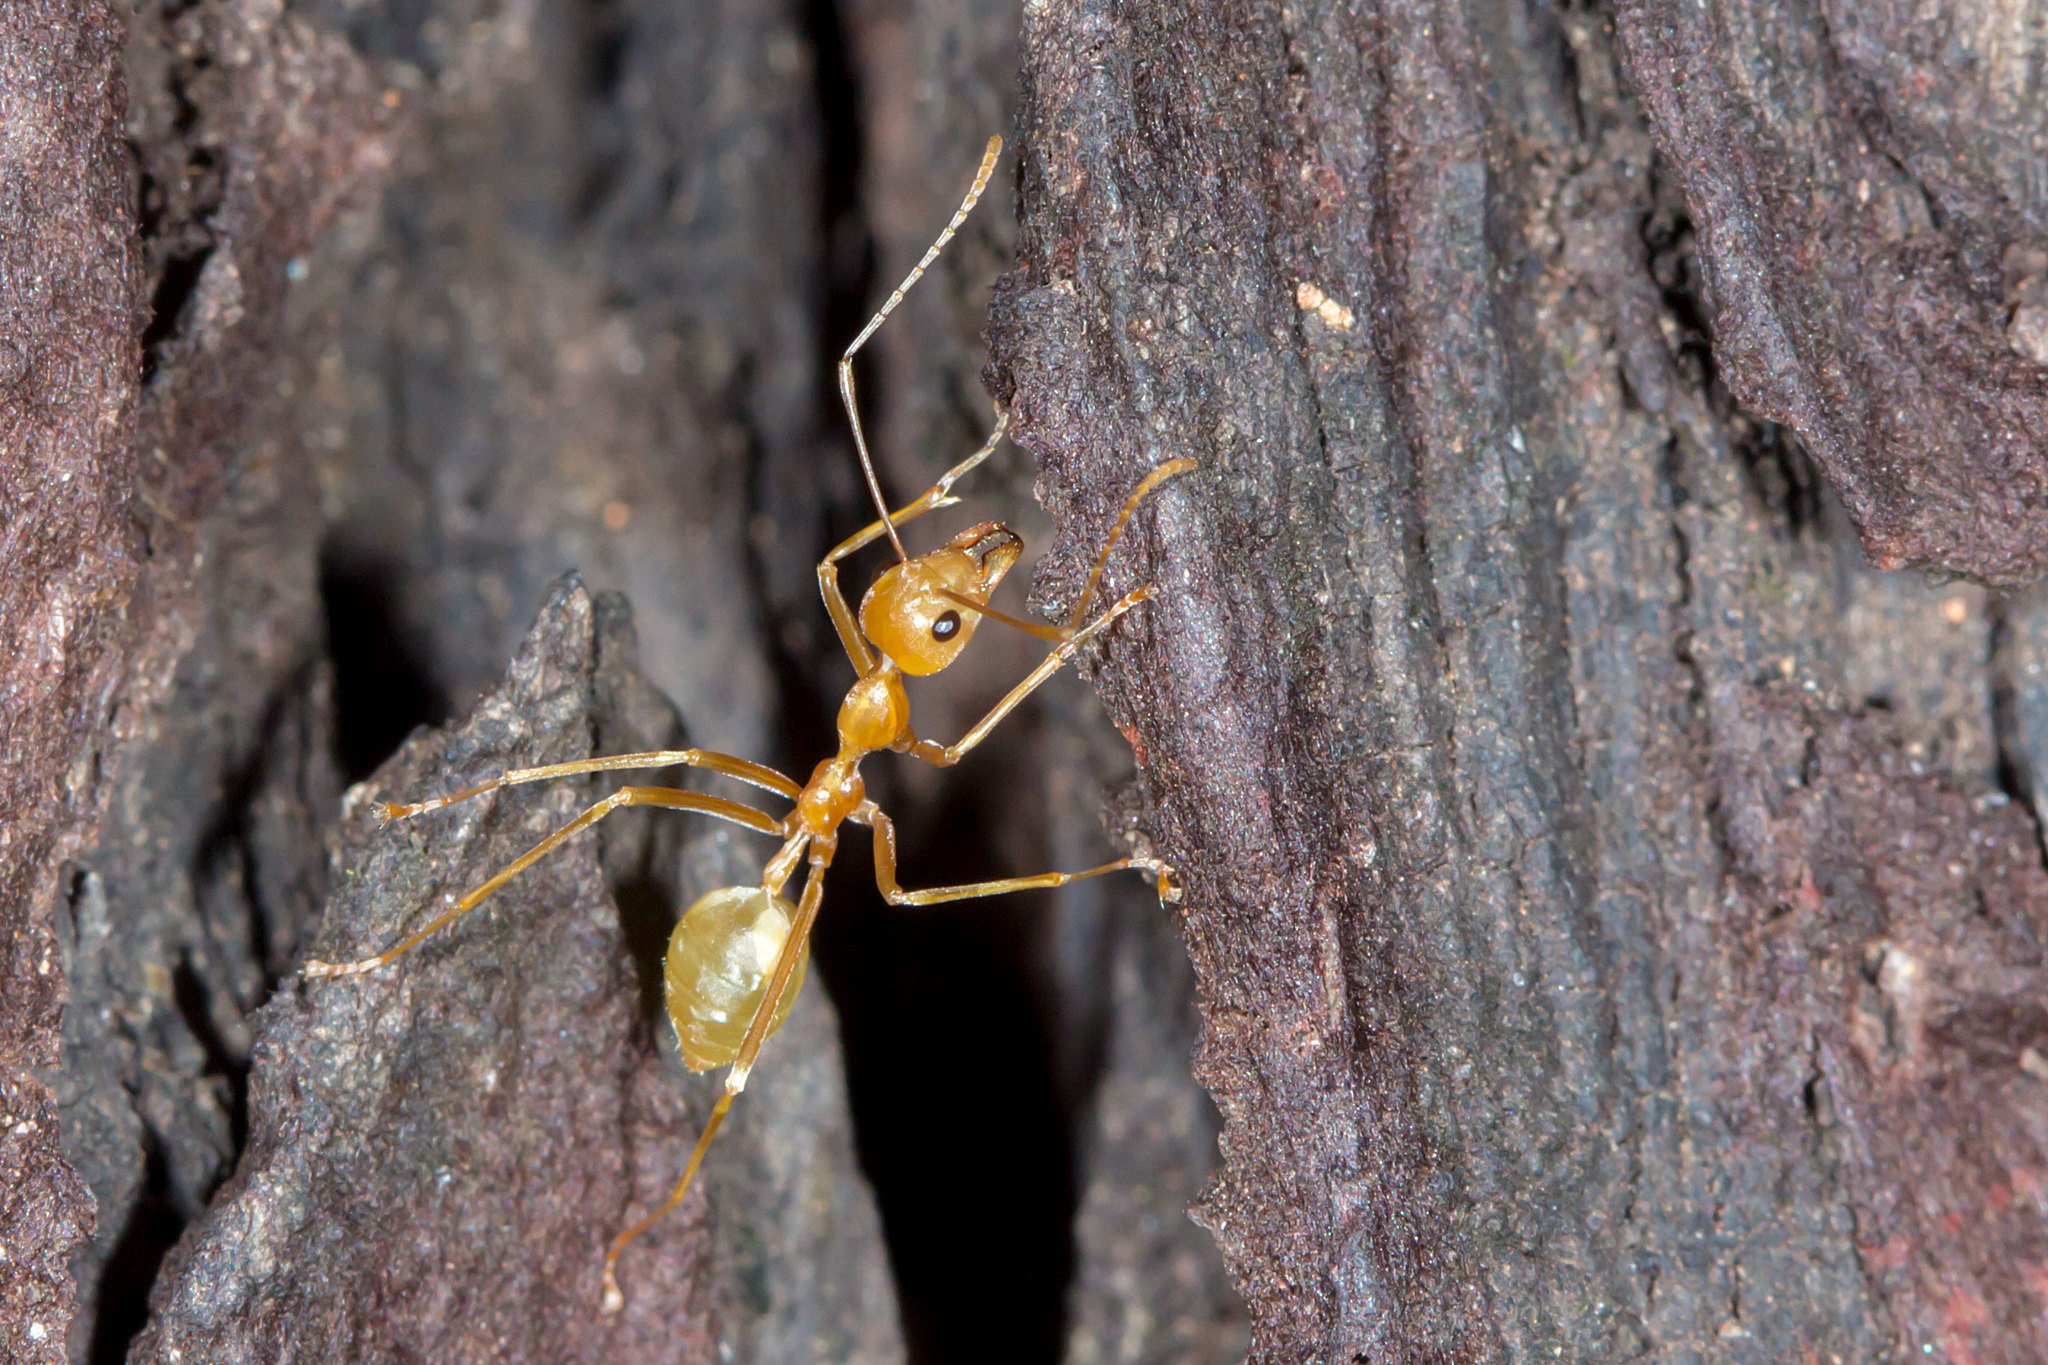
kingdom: Animalia
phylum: Arthropoda
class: Insecta
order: Hymenoptera
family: Formicidae
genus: Oecophylla
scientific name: Oecophylla smaragdina
